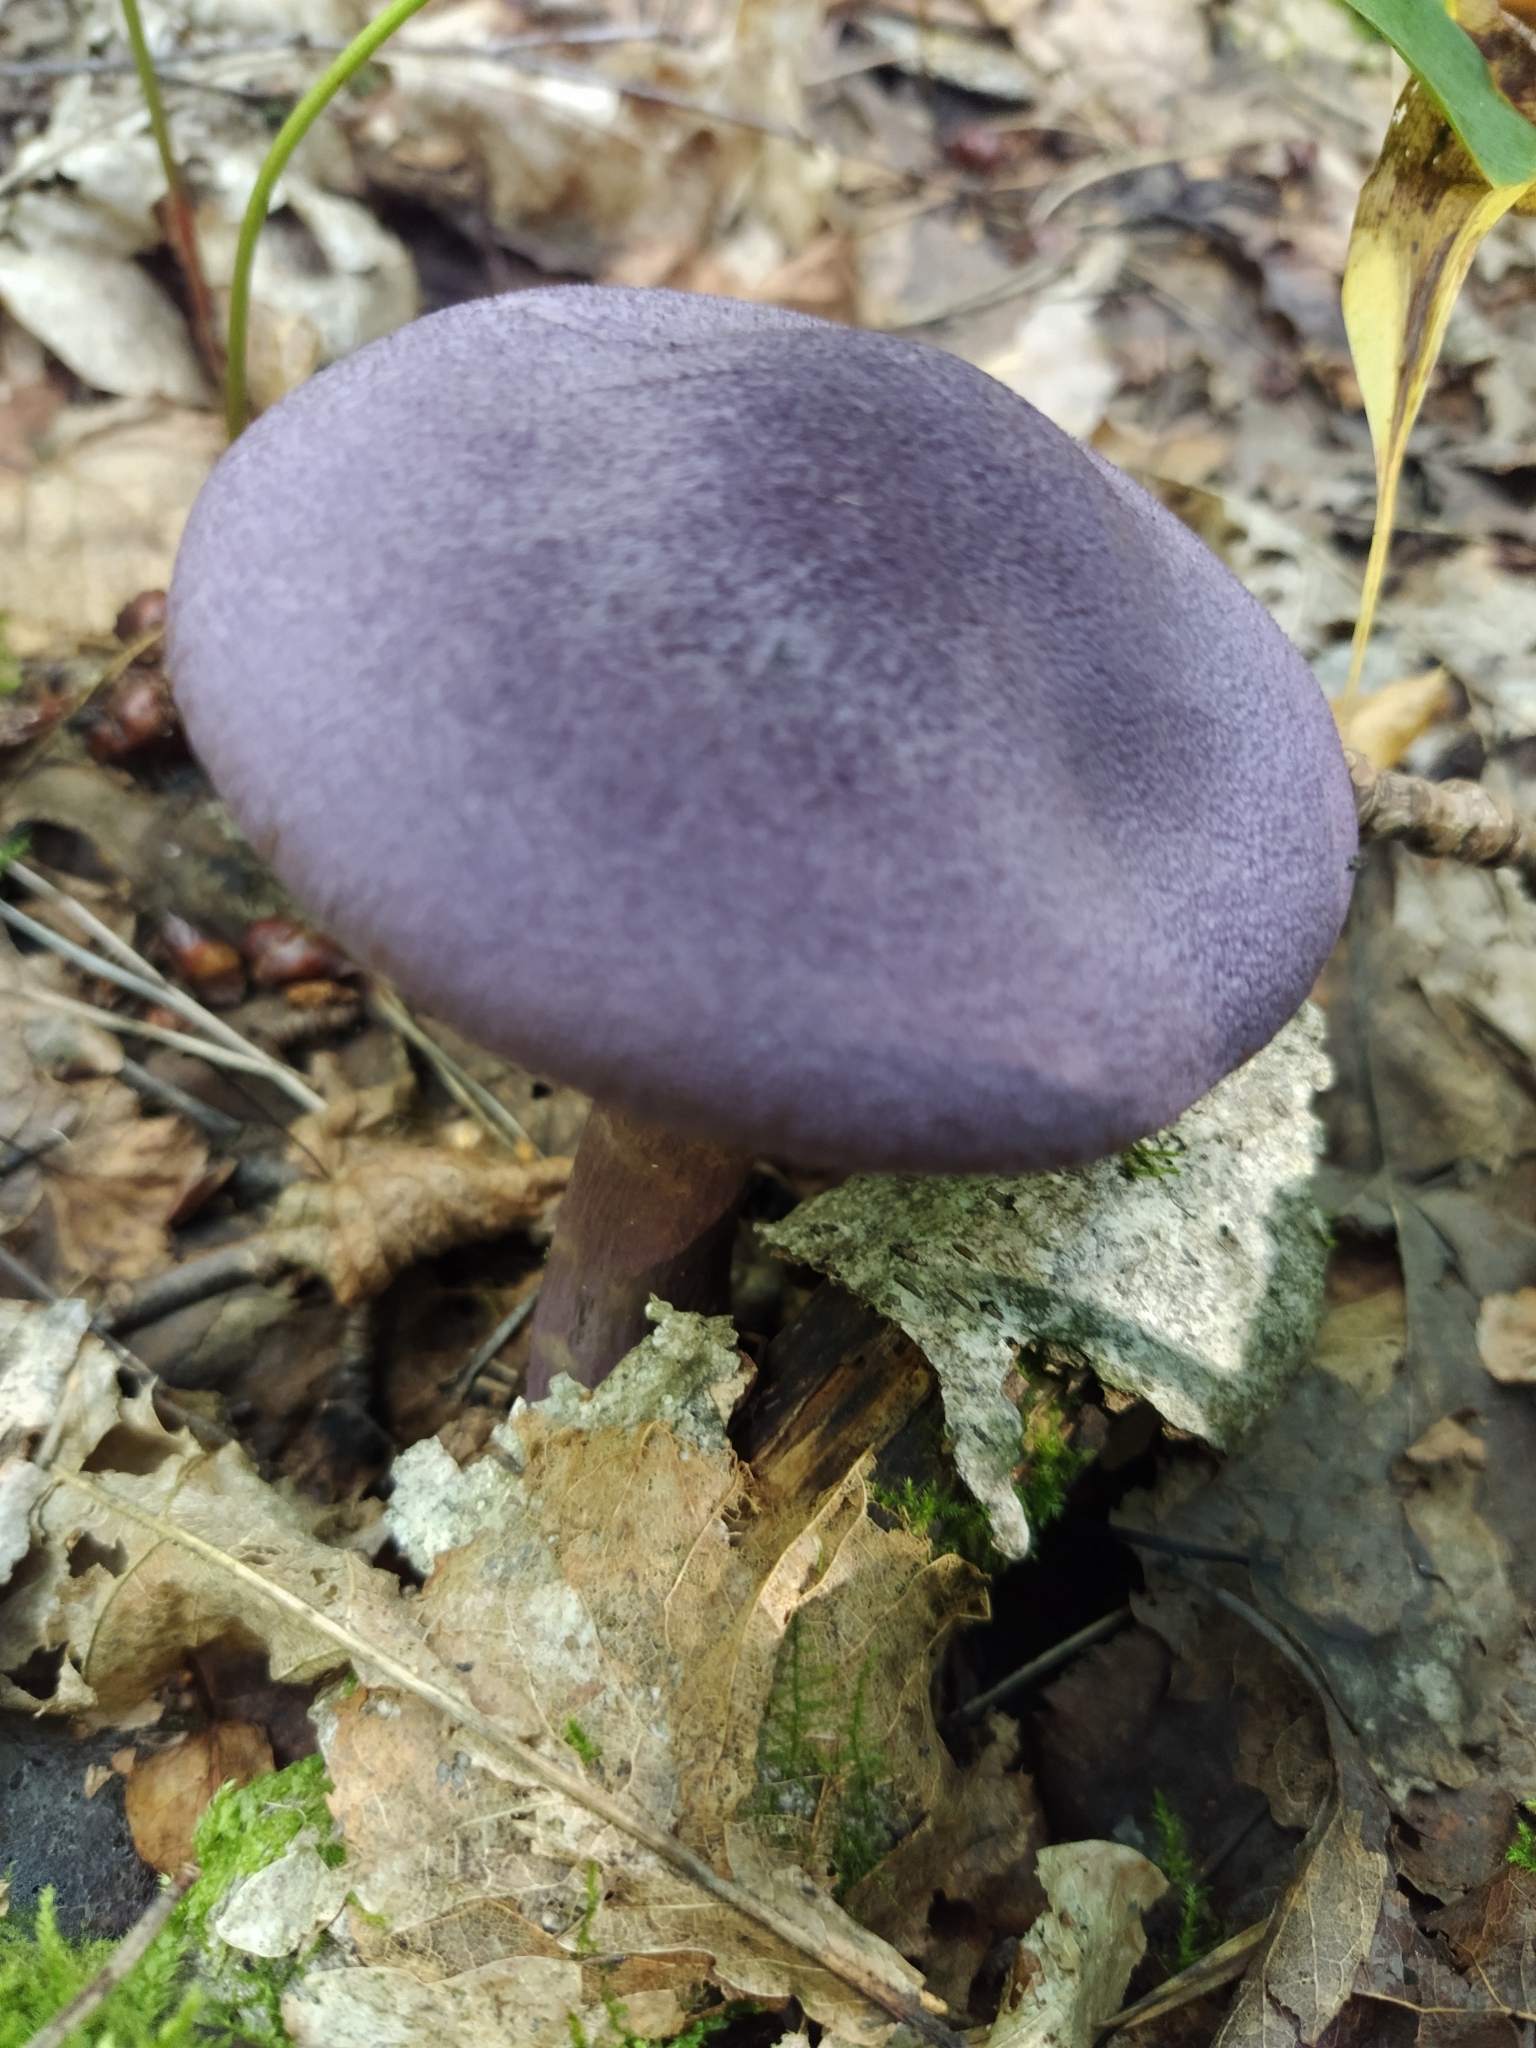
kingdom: Fungi
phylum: Basidiomycota
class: Agaricomycetes
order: Agaricales
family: Cortinariaceae
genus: Cortinarius
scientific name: Cortinarius violaceus
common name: Violet webcap
